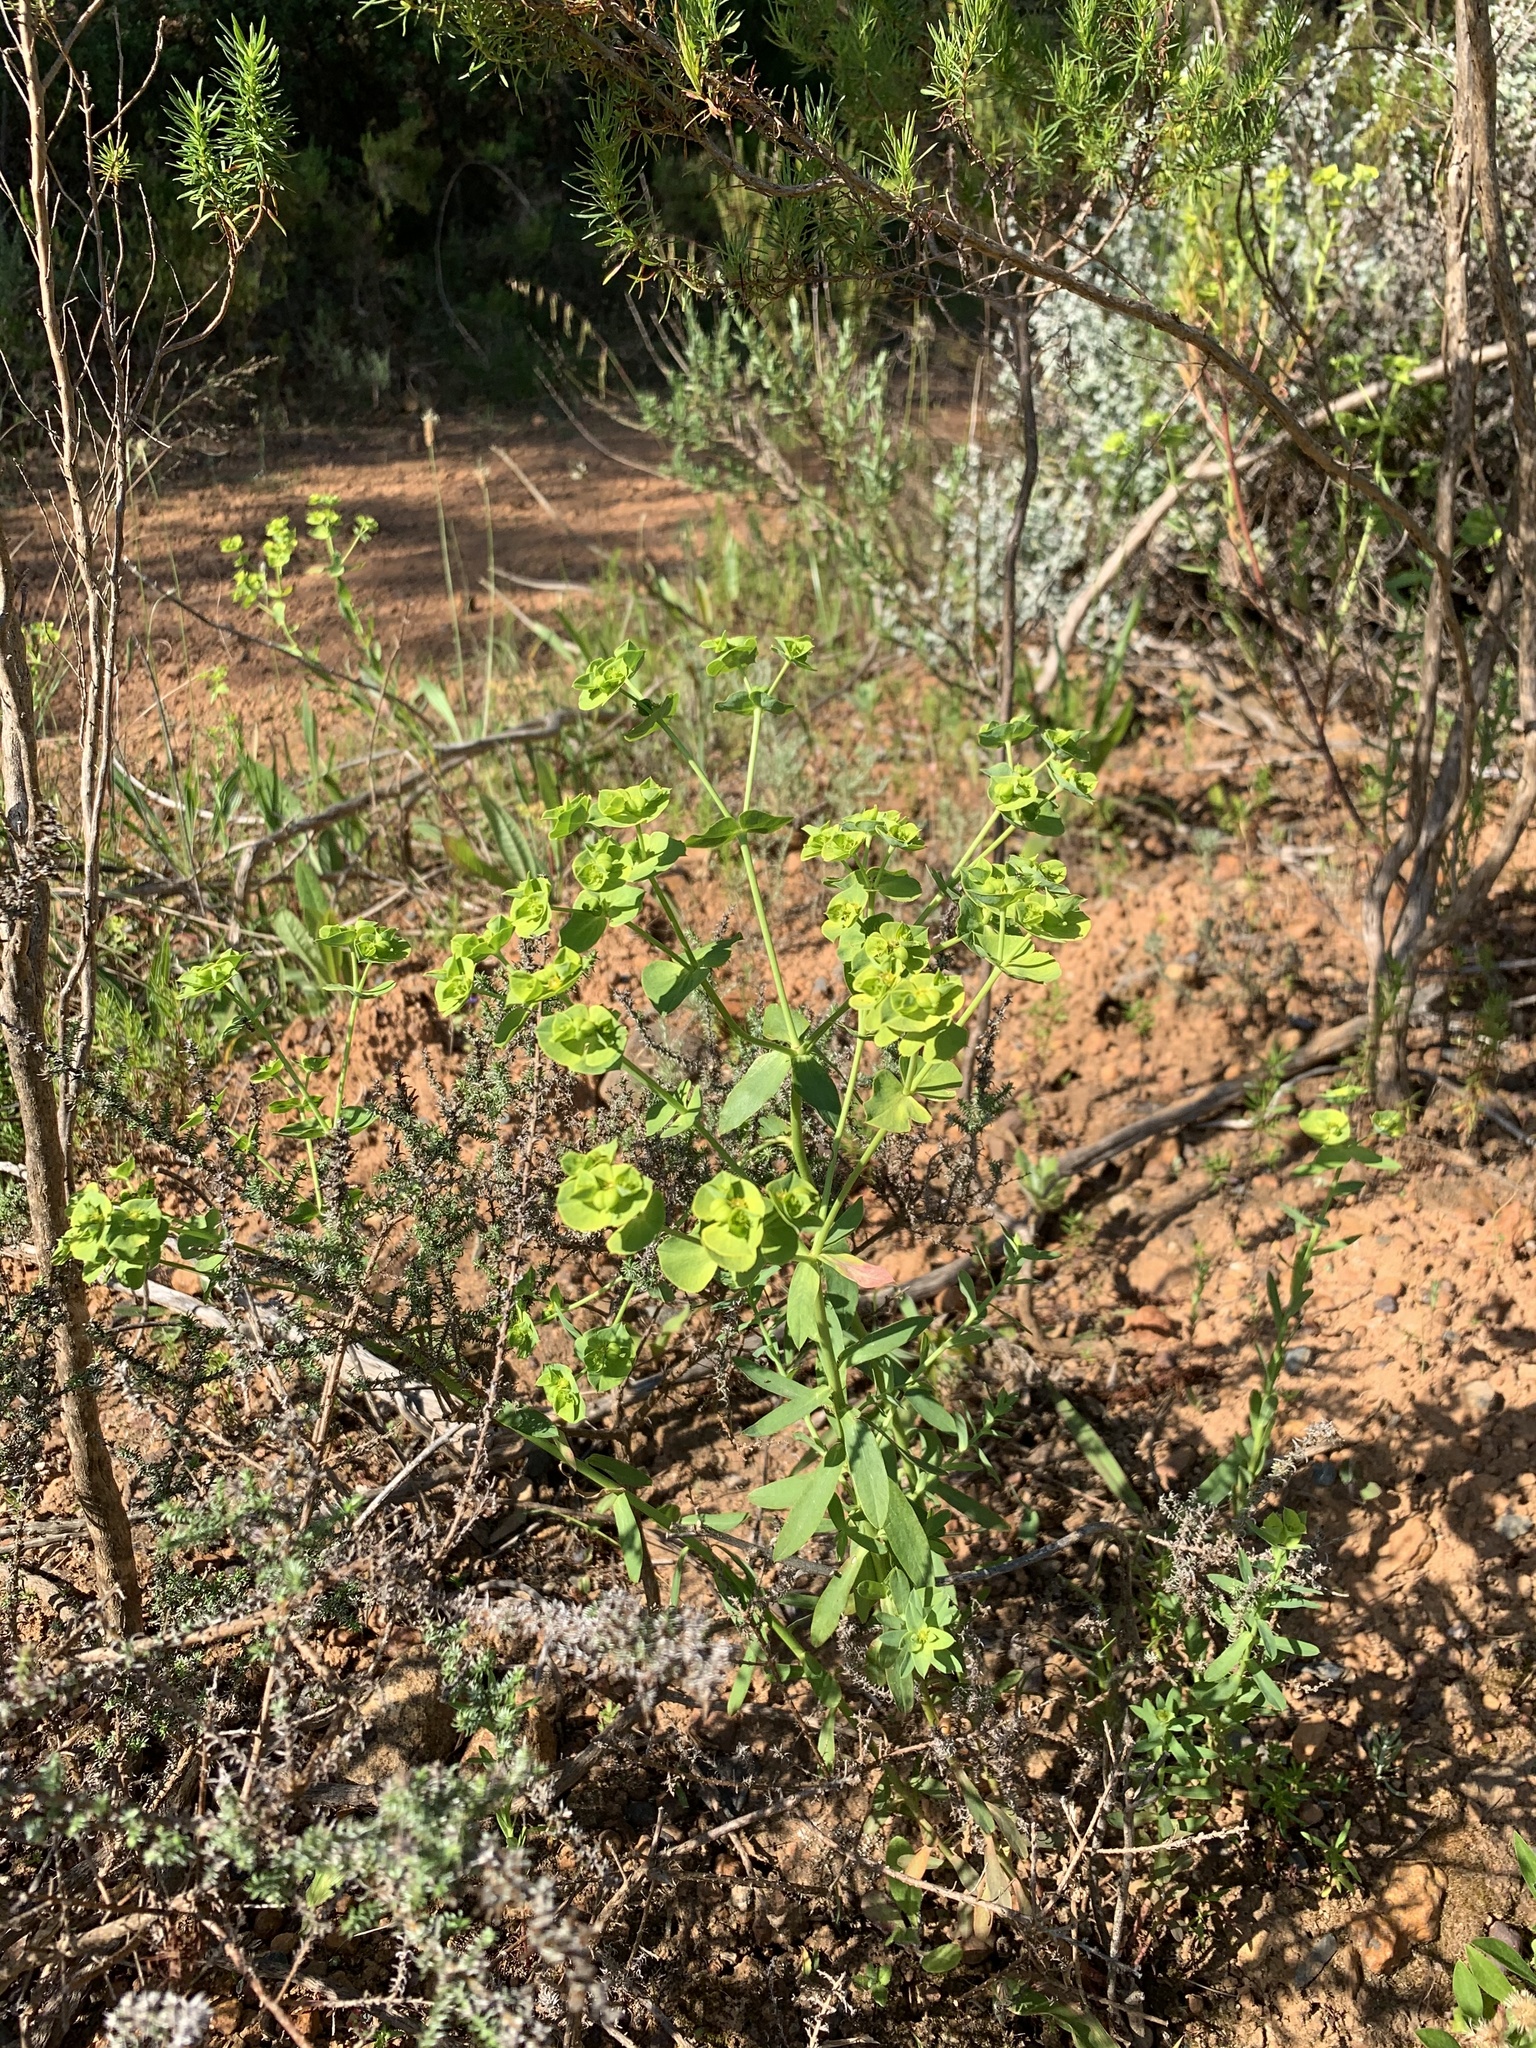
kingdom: Plantae
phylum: Tracheophyta
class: Magnoliopsida
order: Malpighiales
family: Euphorbiaceae
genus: Euphorbia
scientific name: Euphorbia terracina
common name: Geraldton carnation weed
